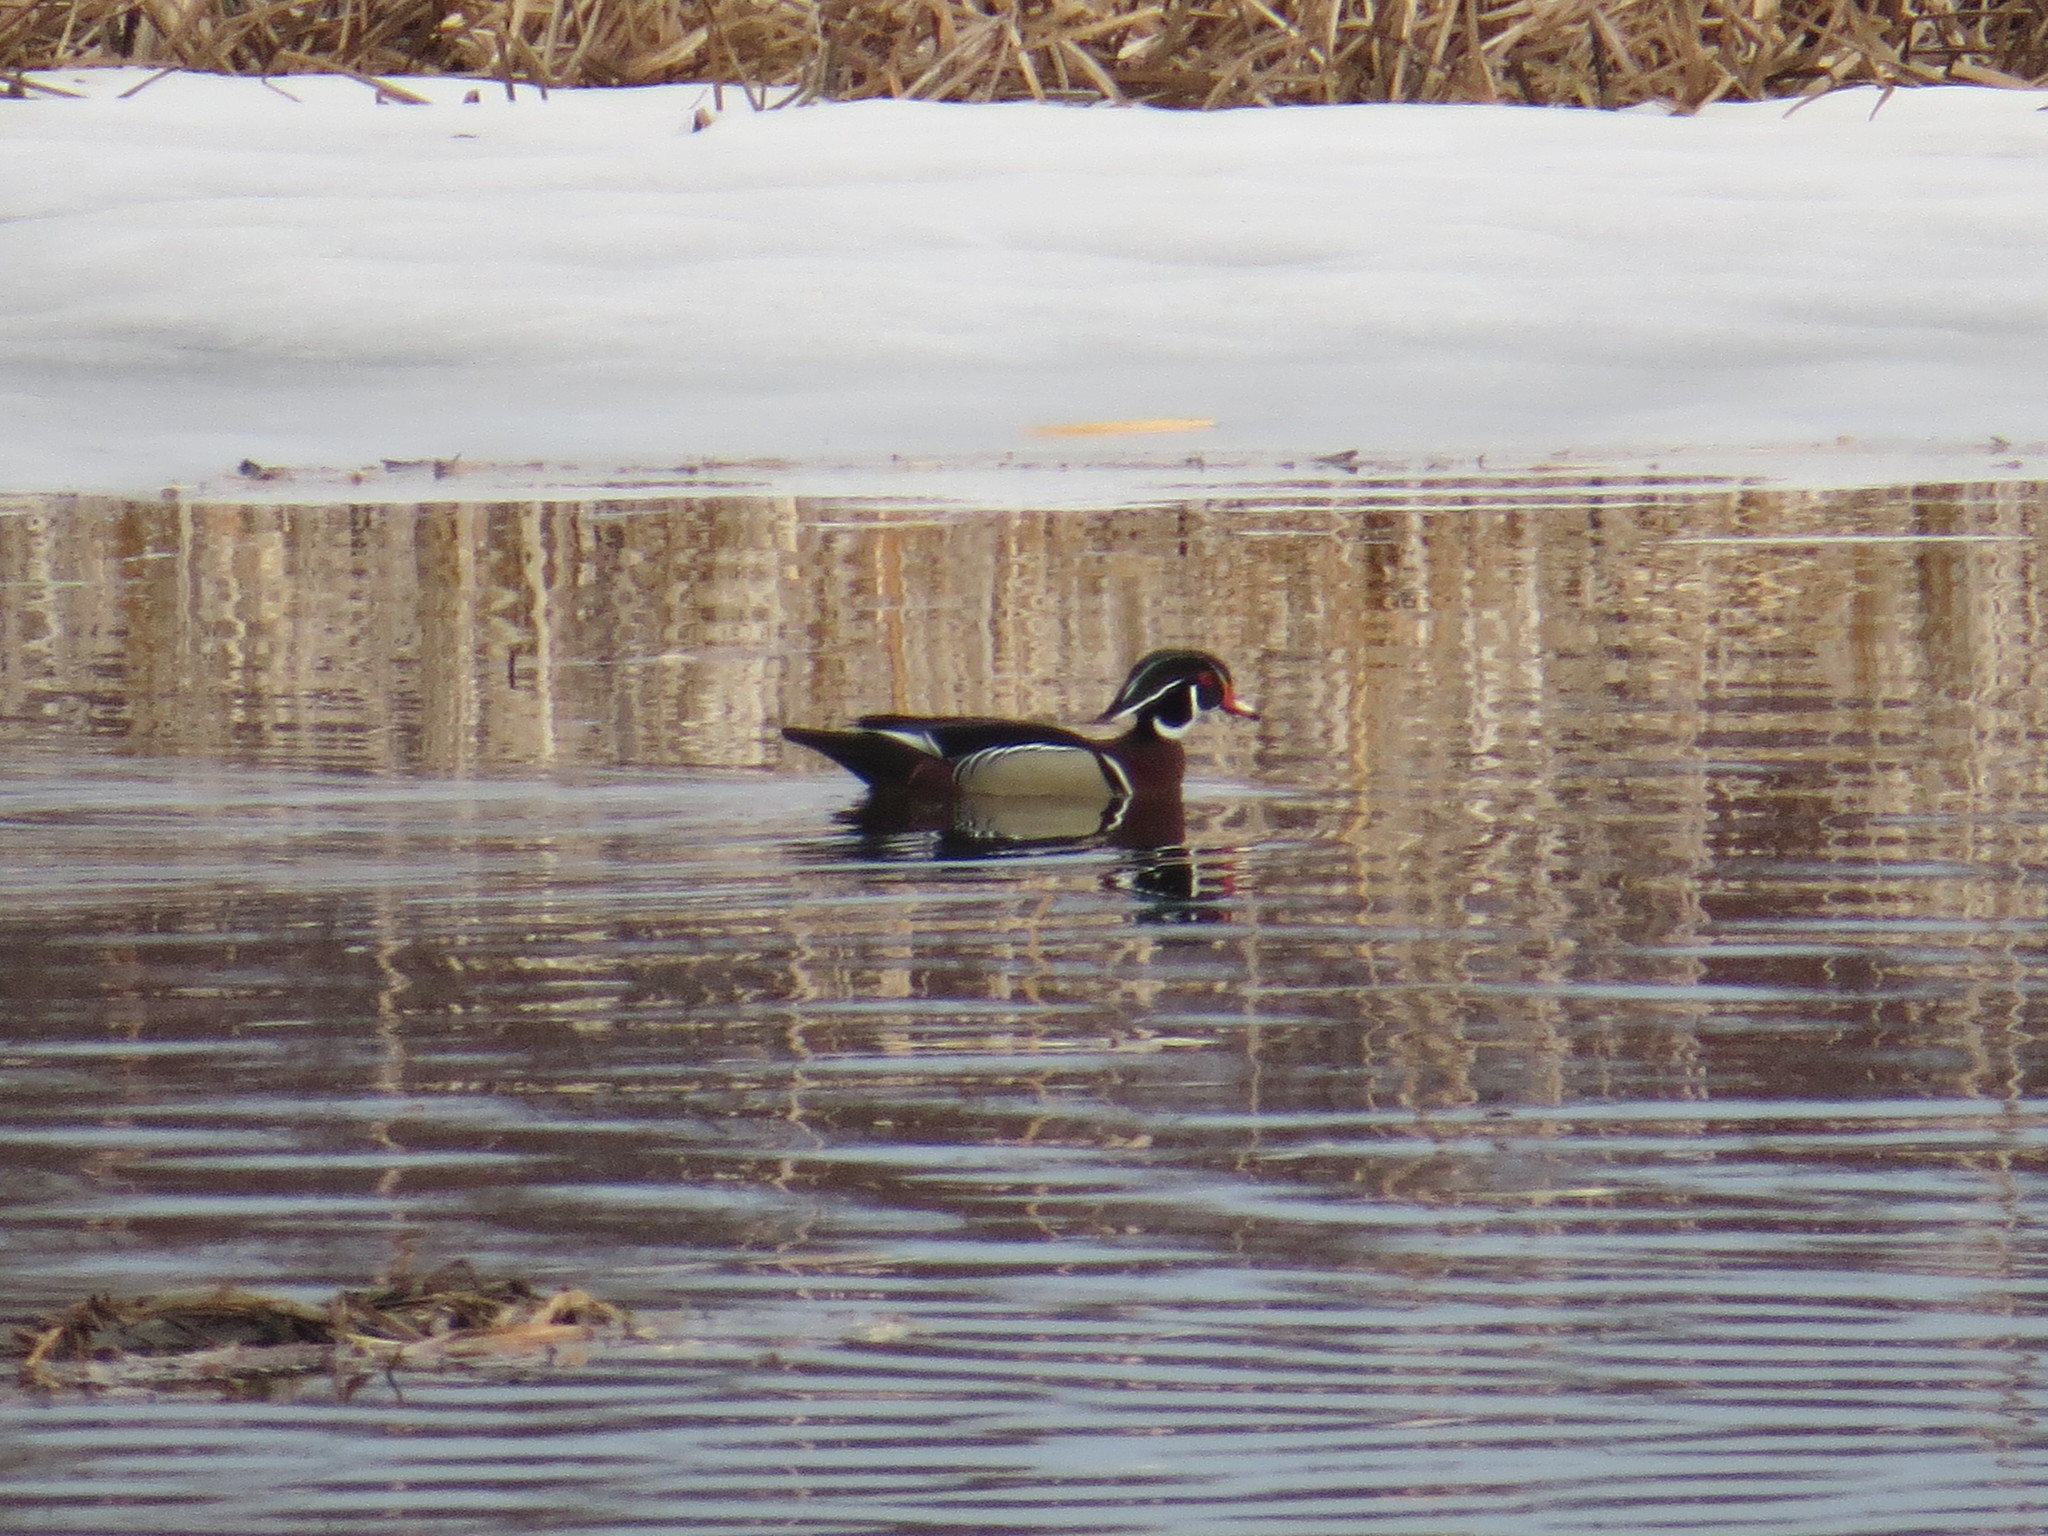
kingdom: Animalia
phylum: Chordata
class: Aves
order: Anseriformes
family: Anatidae
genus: Aix
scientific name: Aix sponsa
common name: Wood duck
